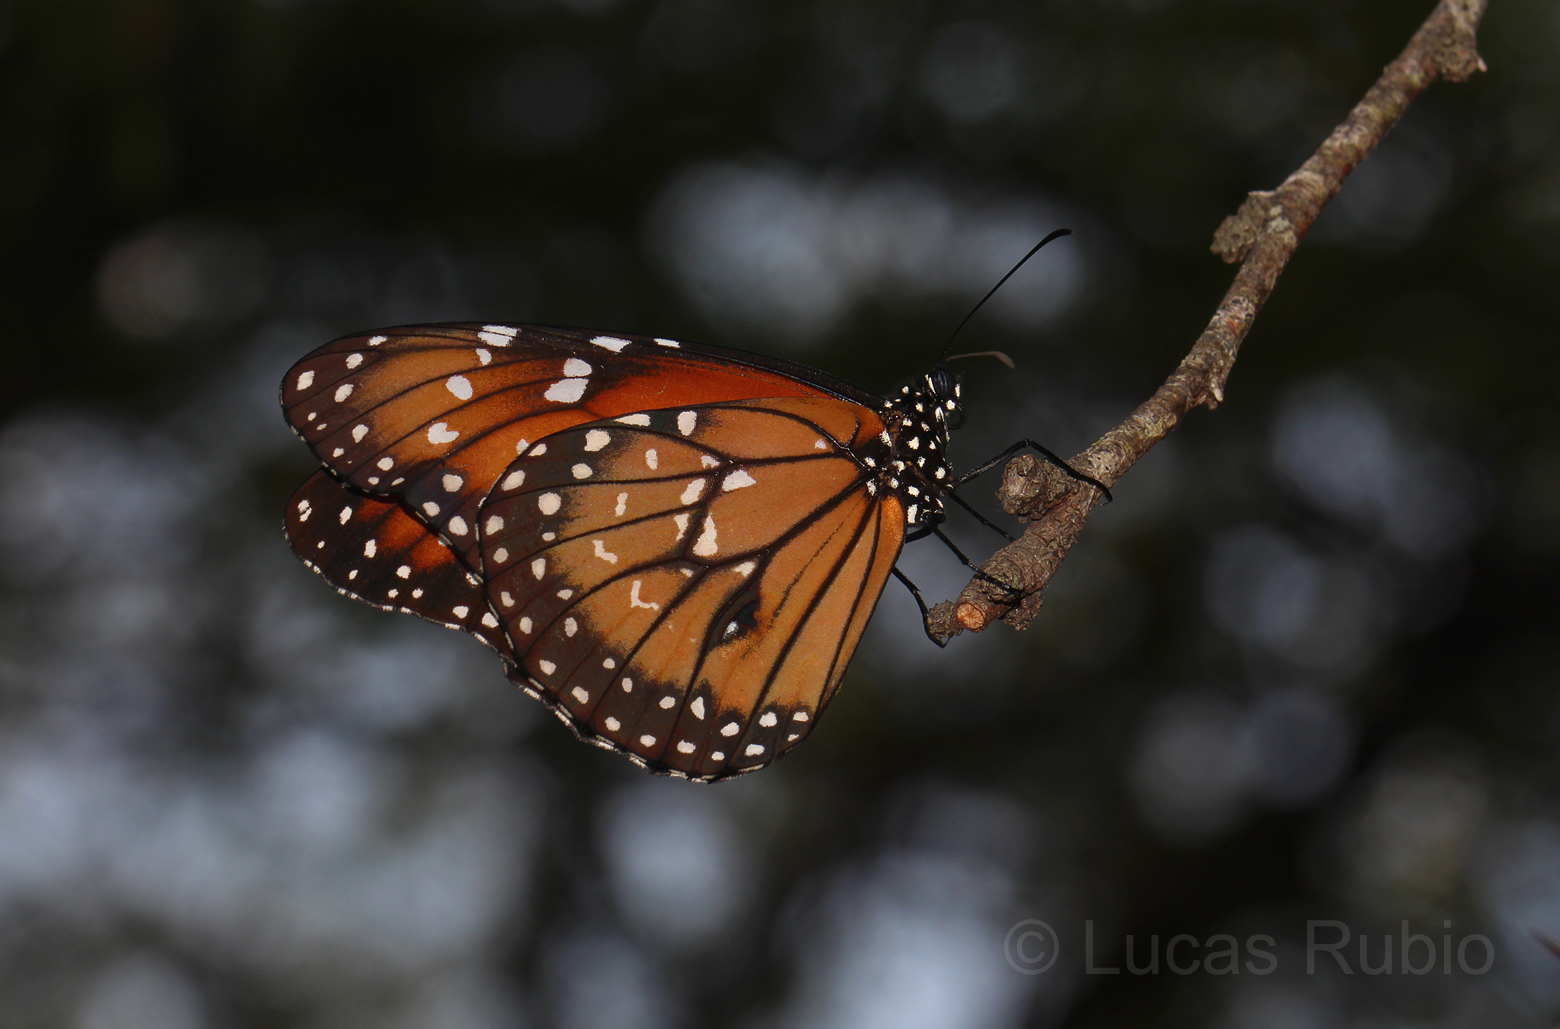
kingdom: Animalia
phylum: Arthropoda
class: Insecta
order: Lepidoptera
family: Nymphalidae
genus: Danaus
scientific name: Danaus eresimus
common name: Soldier
